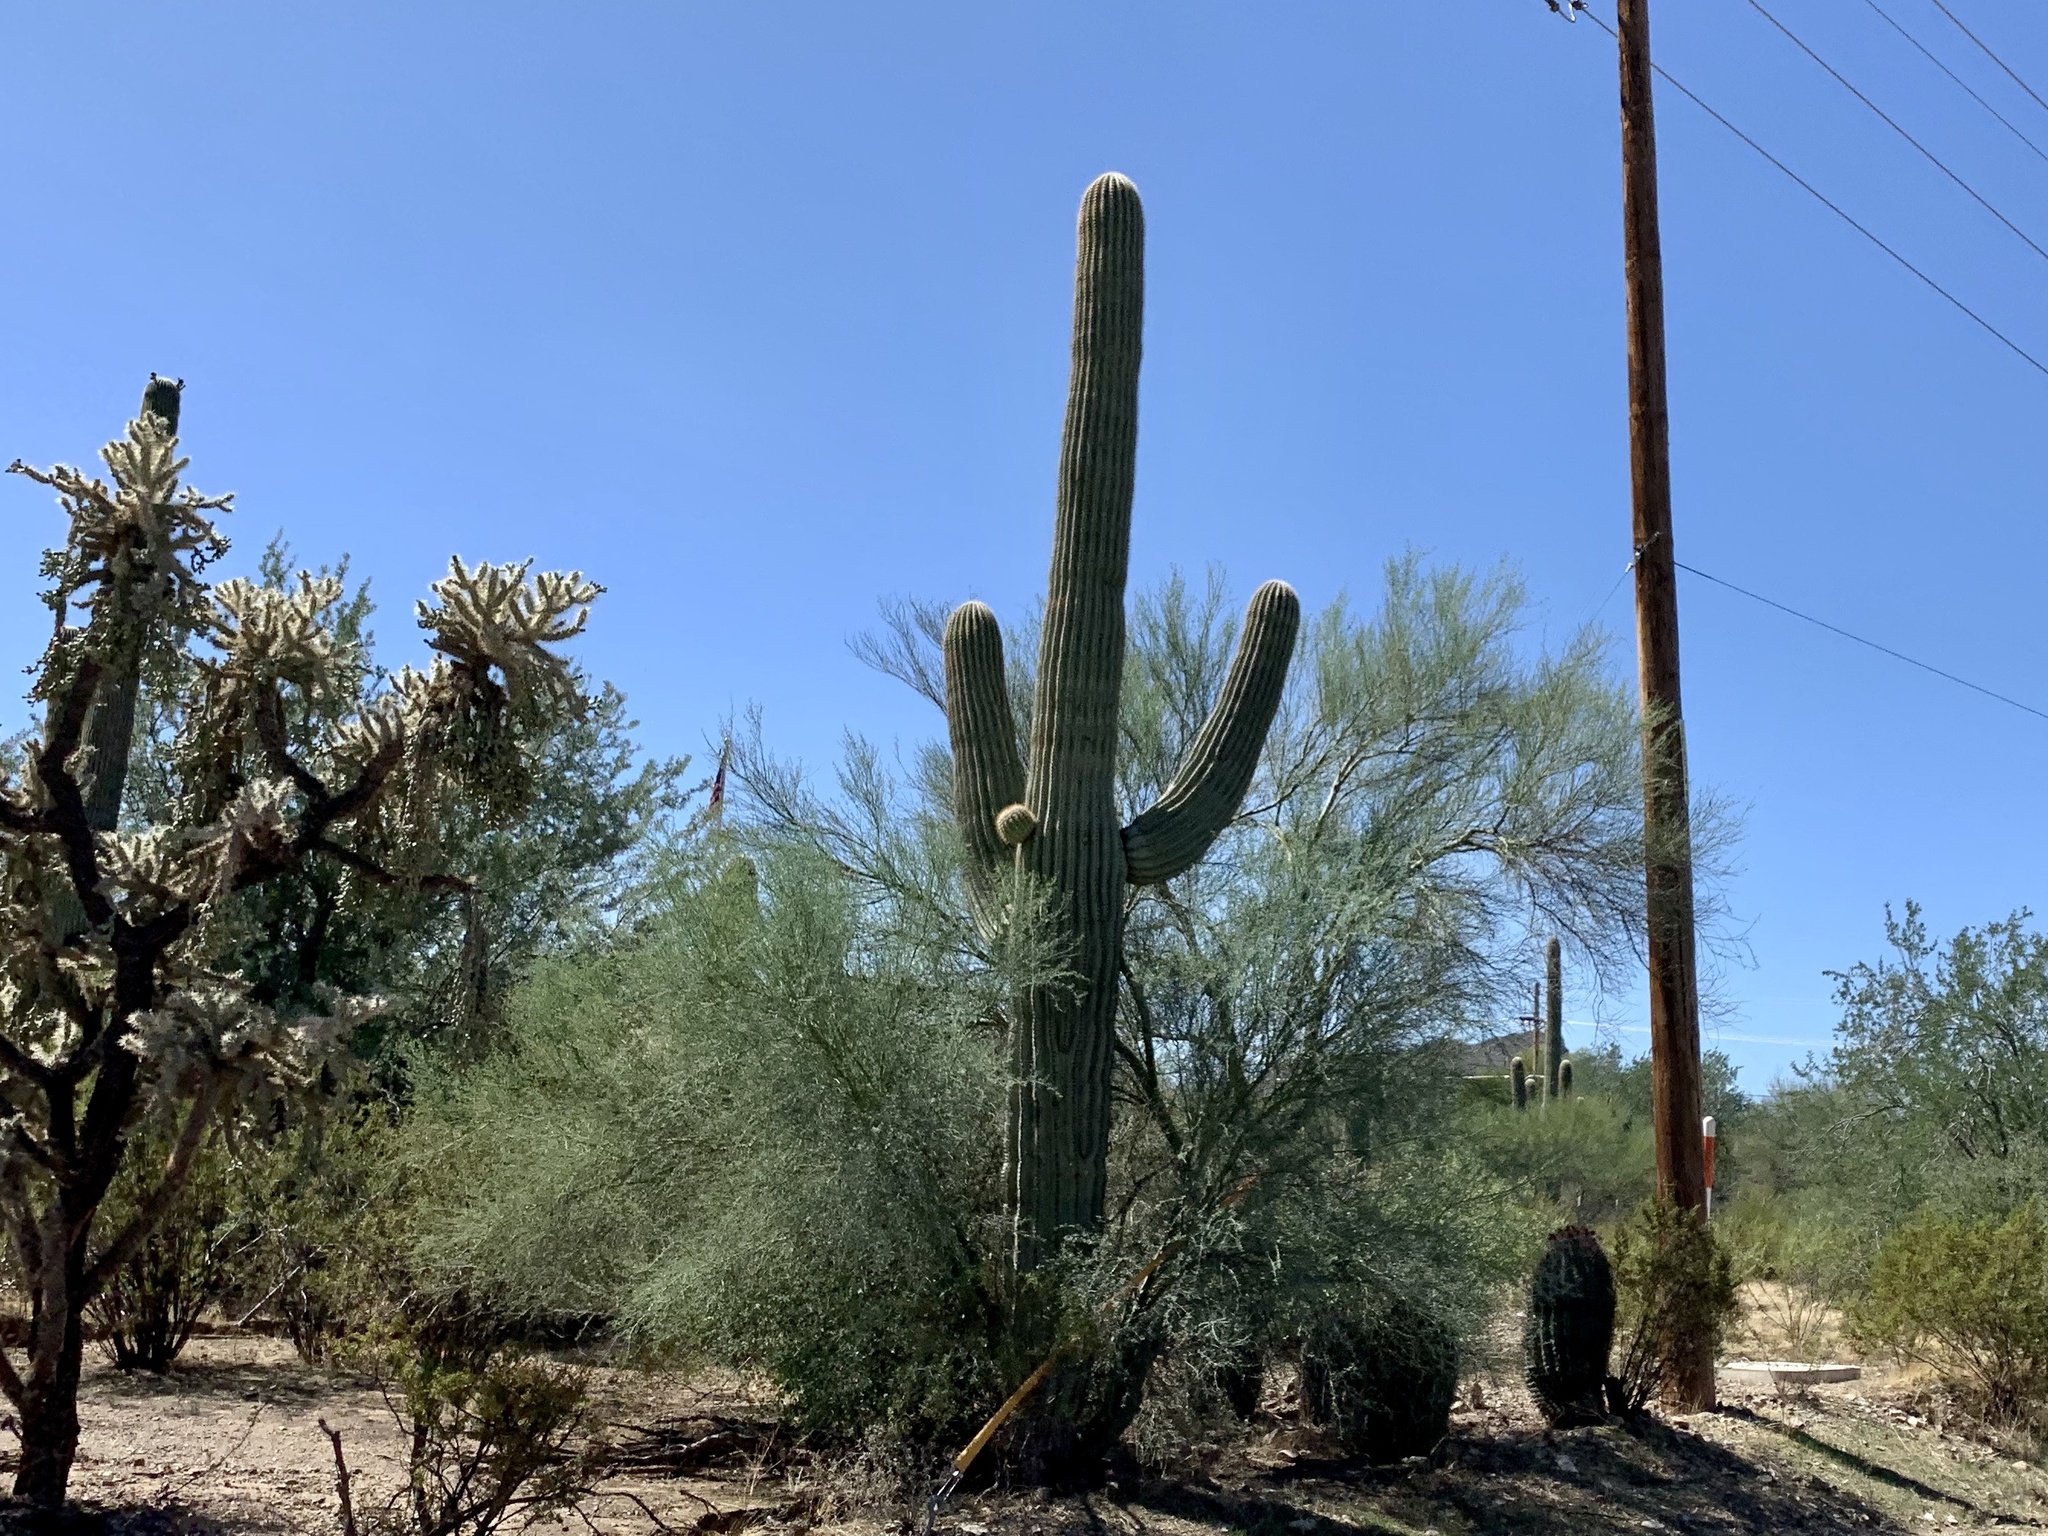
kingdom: Plantae
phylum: Tracheophyta
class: Magnoliopsida
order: Caryophyllales
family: Cactaceae
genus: Carnegiea
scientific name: Carnegiea gigantea
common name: Saguaro
